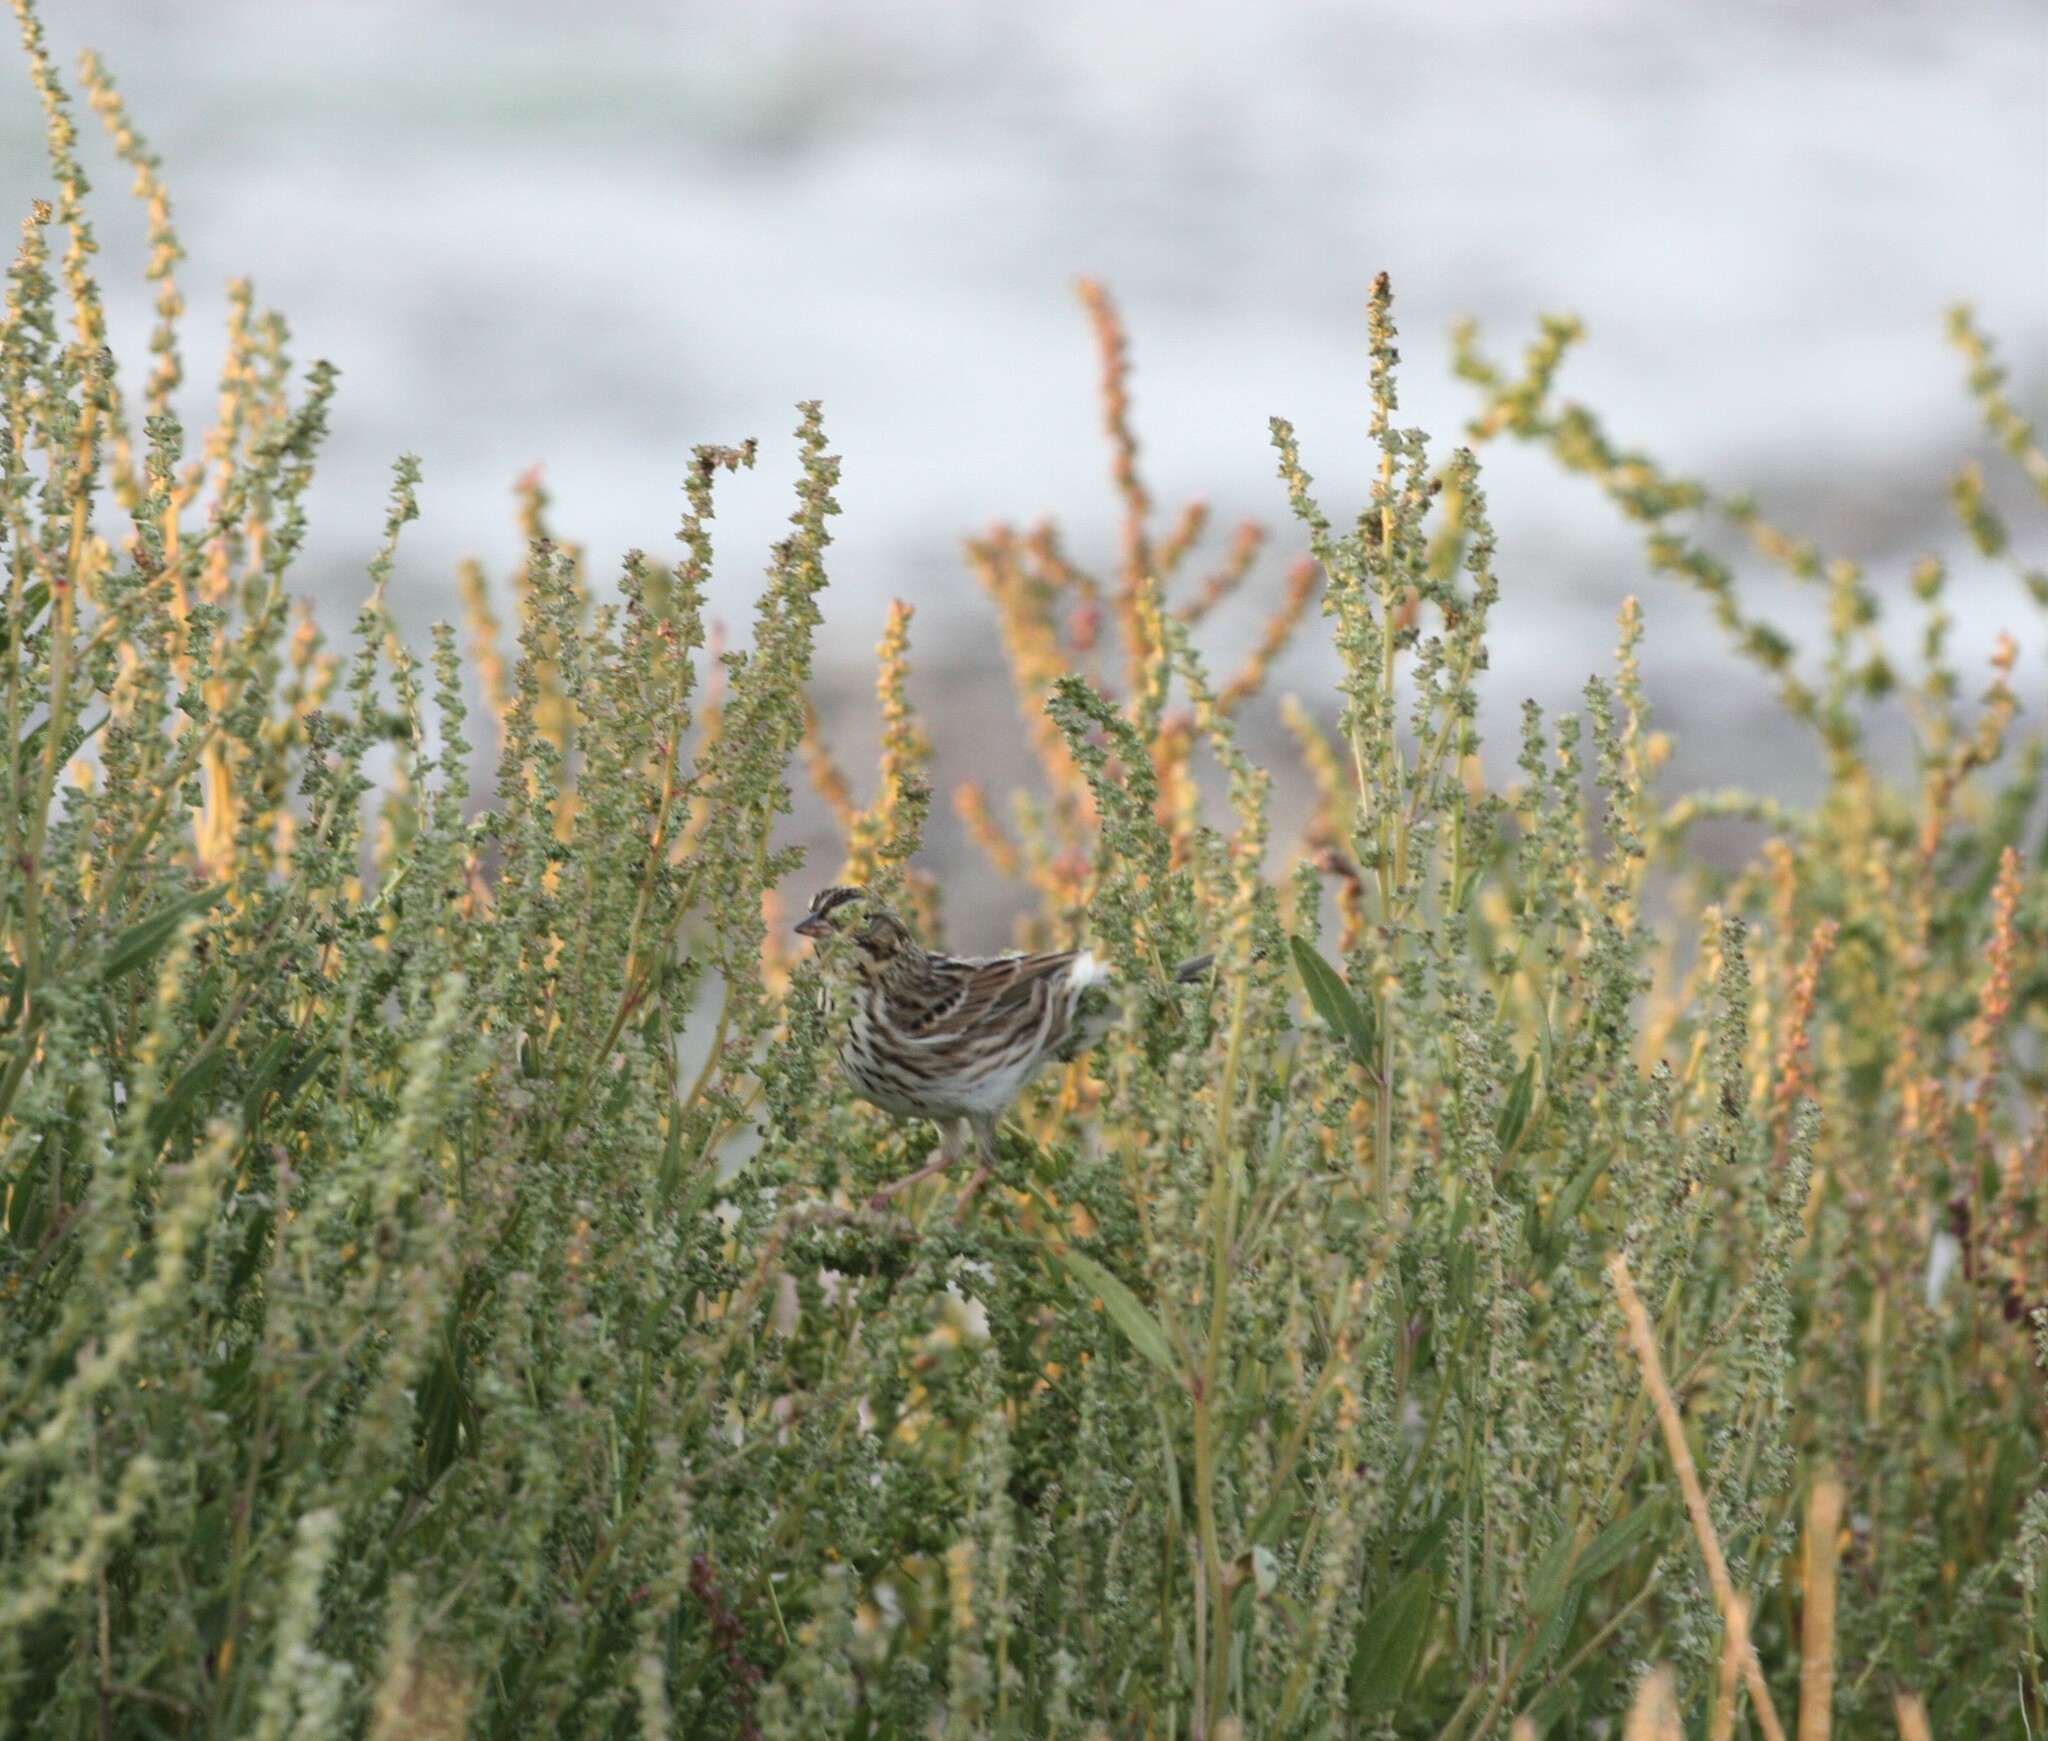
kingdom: Animalia
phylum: Chordata
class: Aves
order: Passeriformes
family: Passerellidae
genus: Passerculus
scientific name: Passerculus sandwichensis
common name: Savannah sparrow
